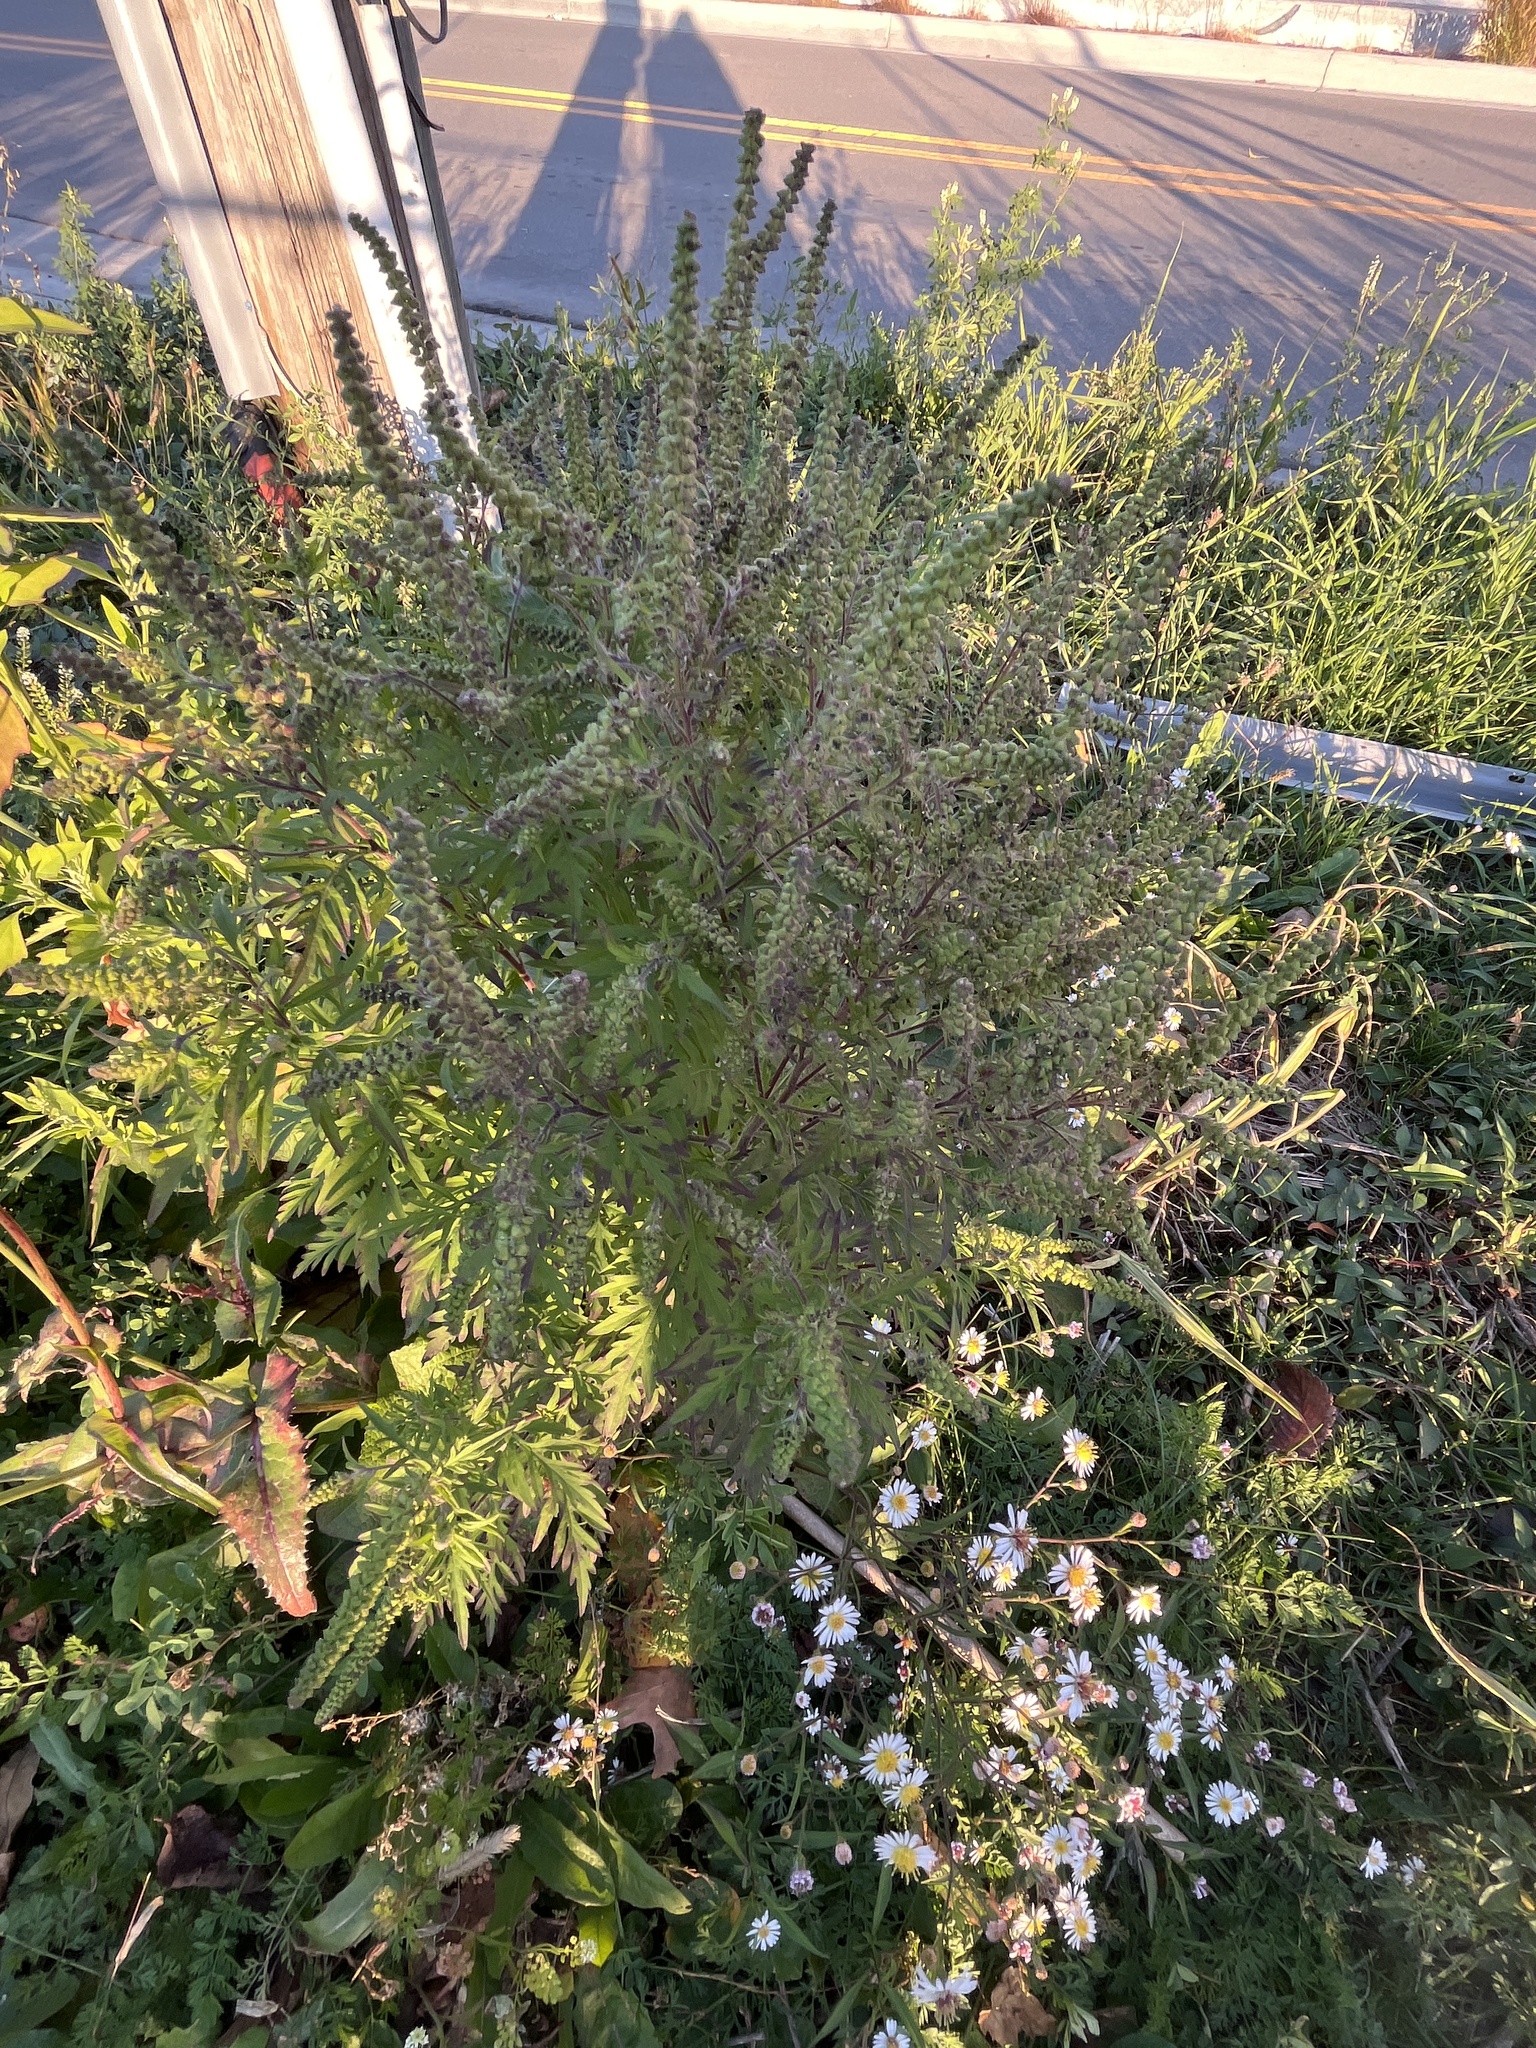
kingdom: Plantae
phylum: Tracheophyta
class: Magnoliopsida
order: Asterales
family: Asteraceae
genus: Ambrosia
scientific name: Ambrosia artemisiifolia
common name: Annual ragweed
